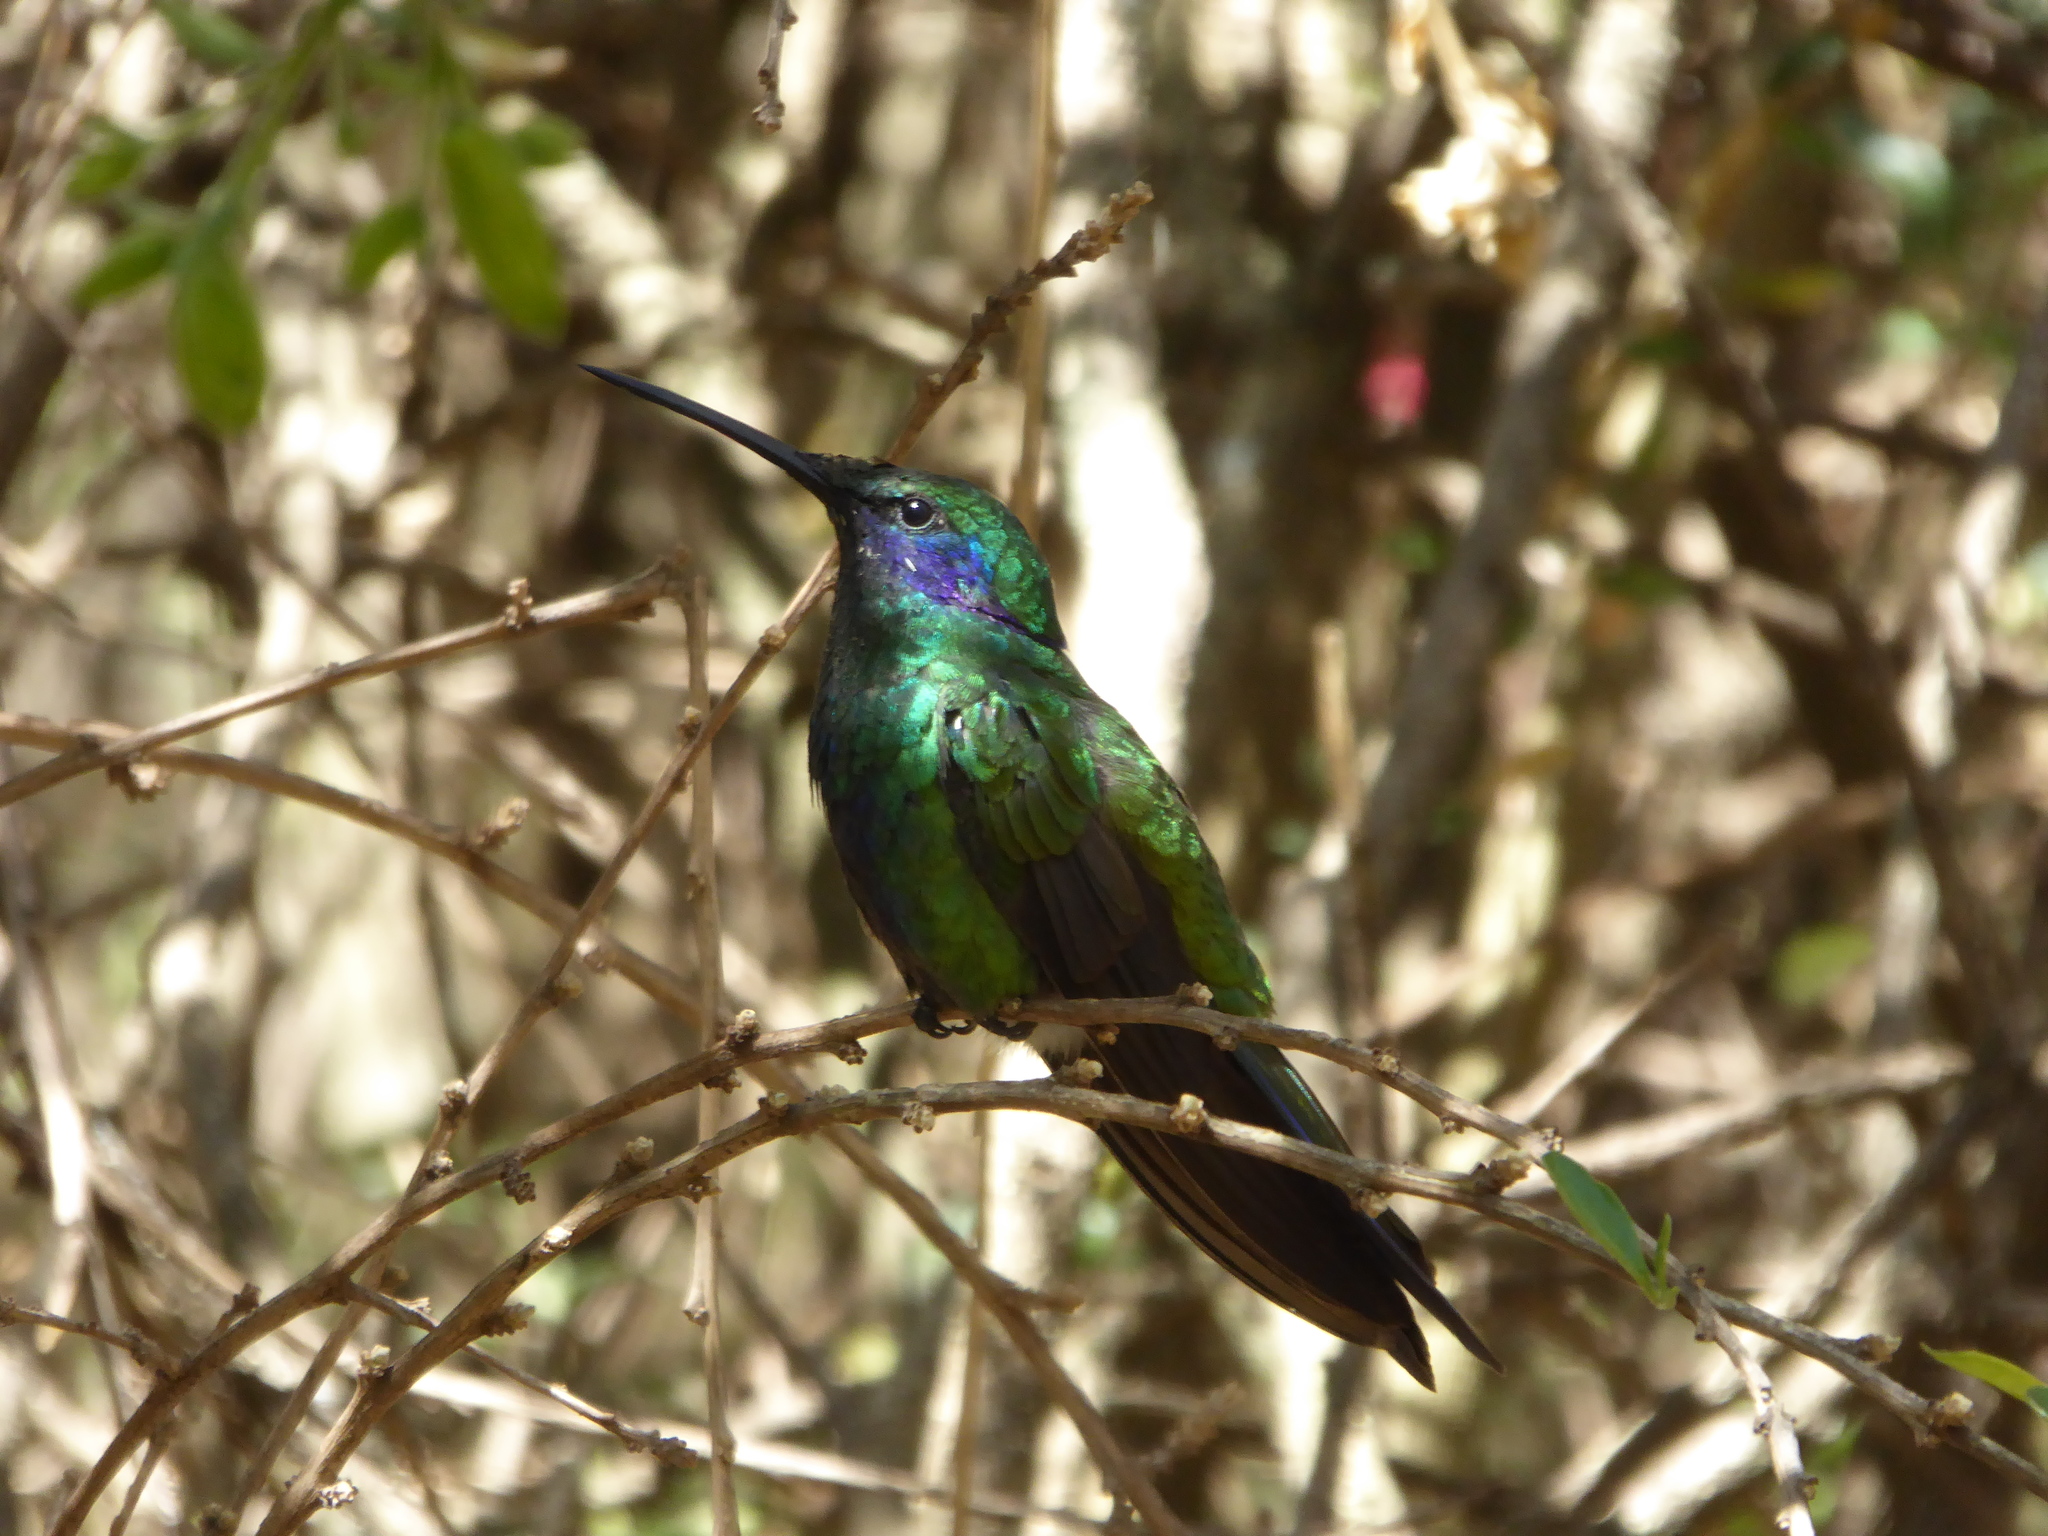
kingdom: Animalia
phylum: Chordata
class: Aves
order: Apodiformes
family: Trochilidae
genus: Colibri
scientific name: Colibri coruscans
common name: Sparkling violetear
